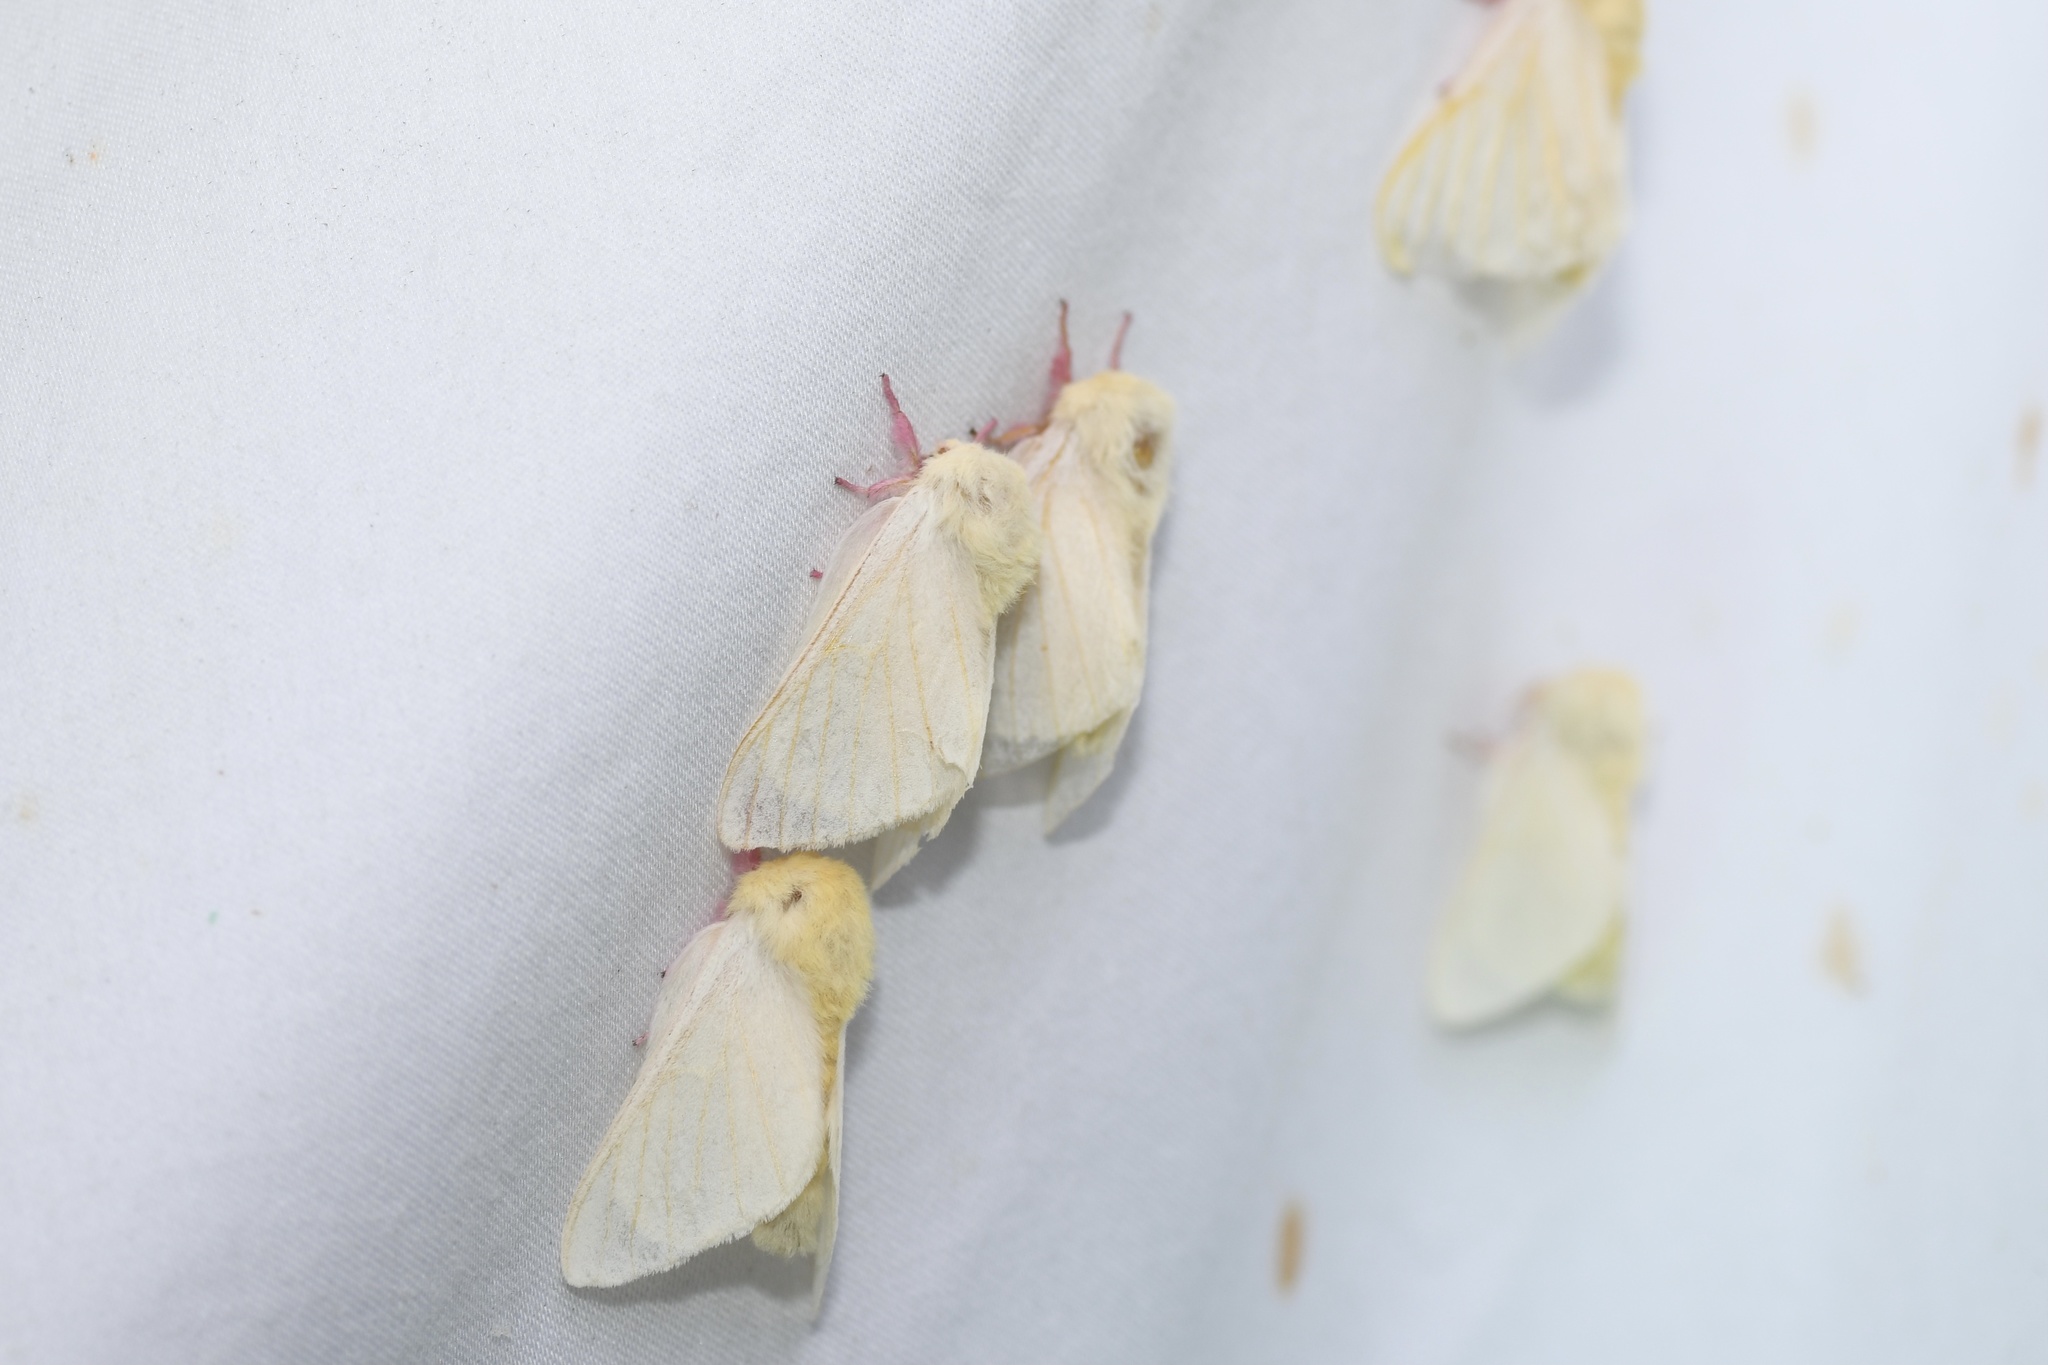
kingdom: Animalia
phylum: Arthropoda
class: Insecta
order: Lepidoptera
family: Saturniidae
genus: Dryocampa
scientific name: Dryocampa rubicunda
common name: Rosy maple moth
